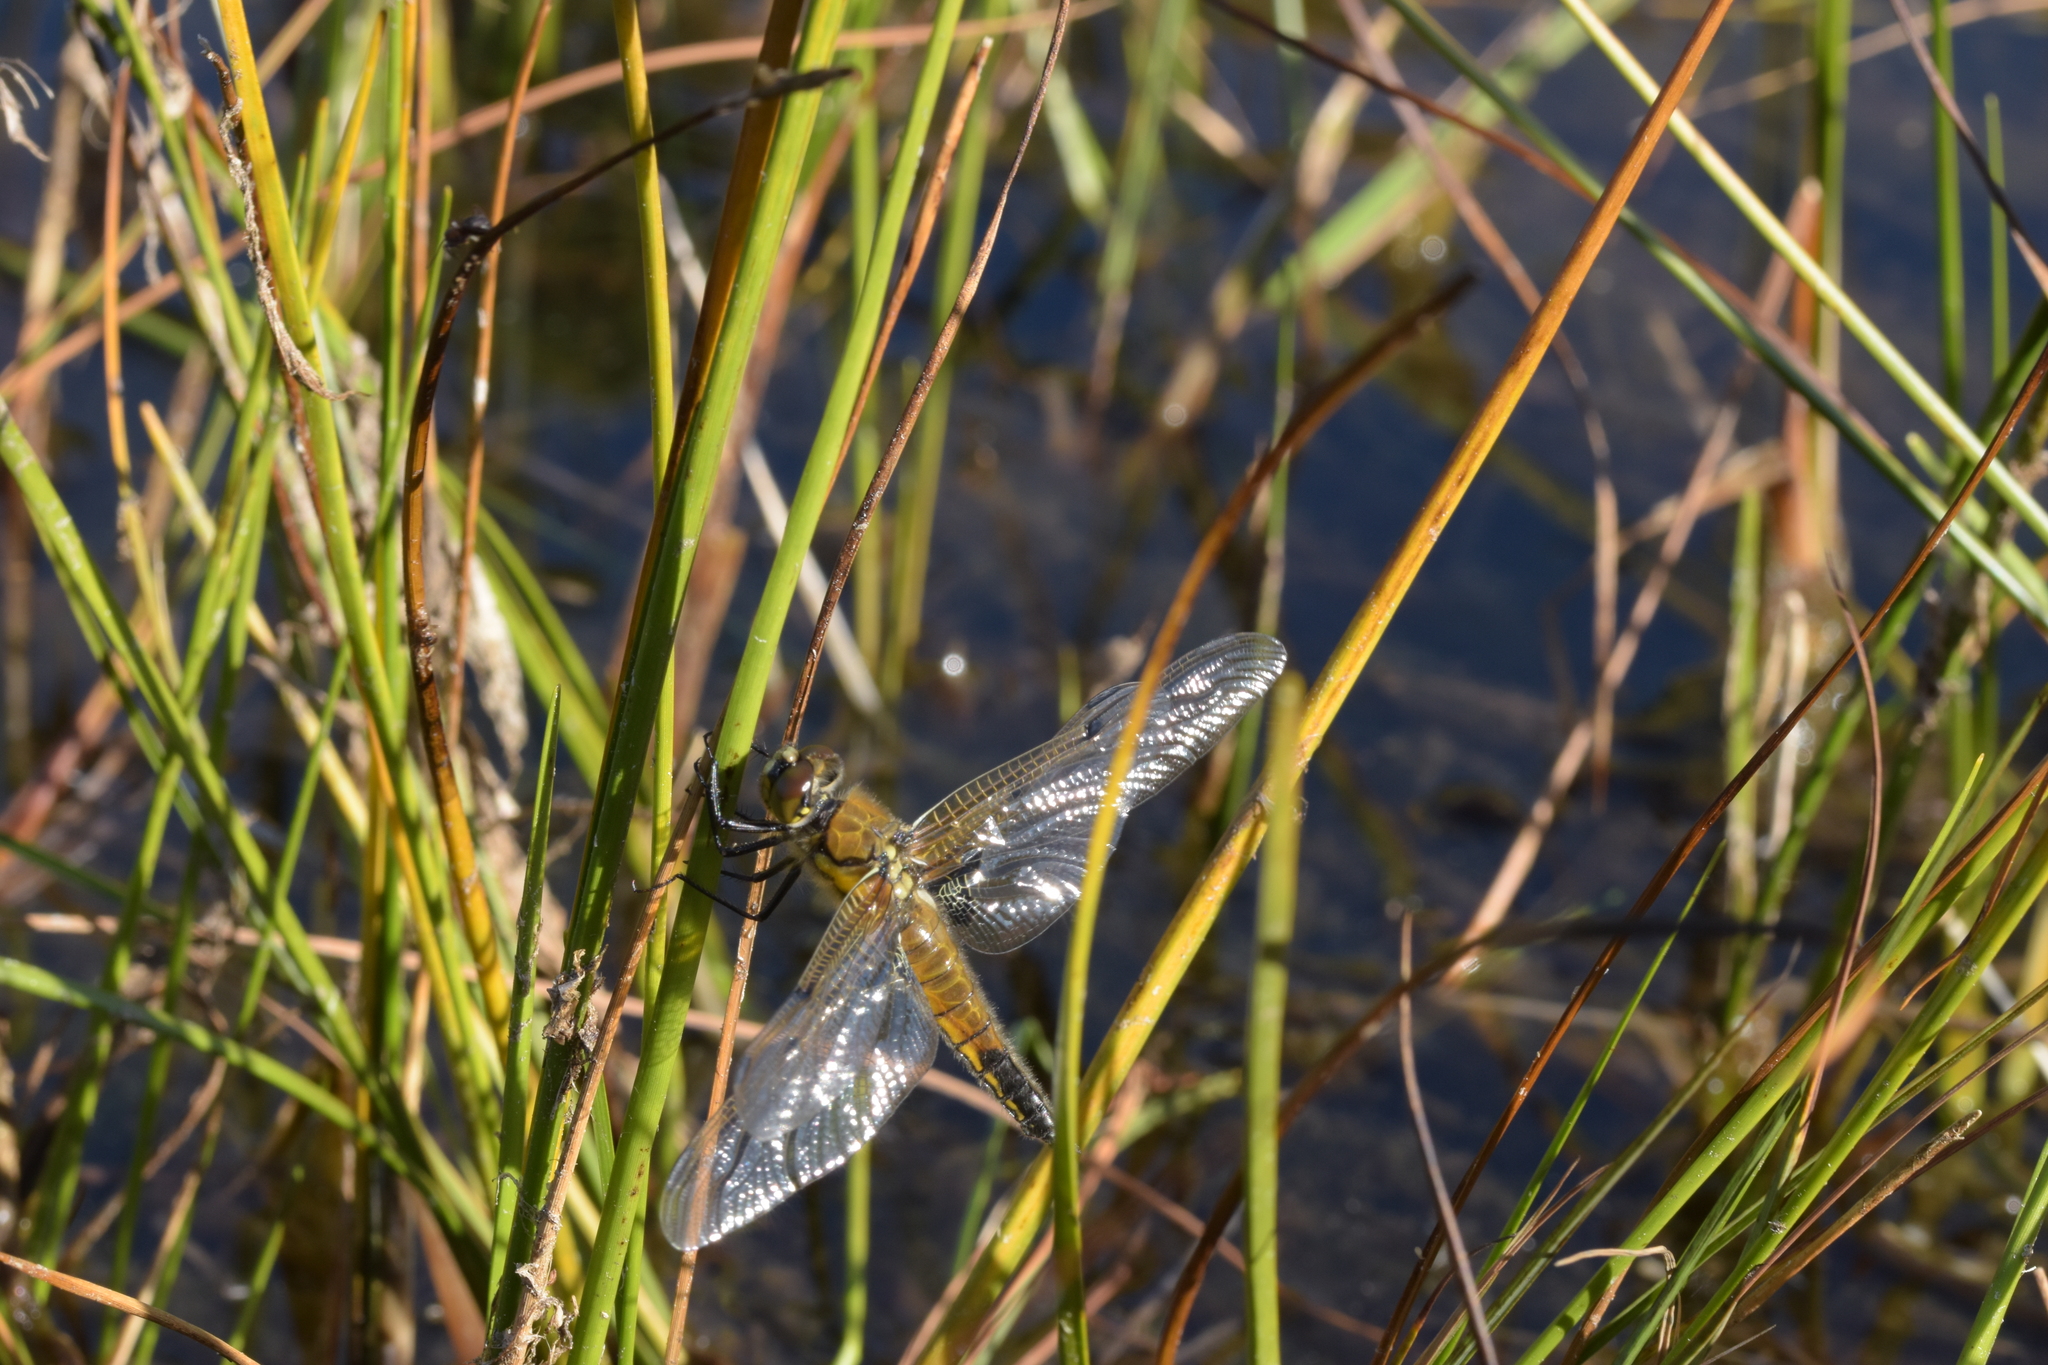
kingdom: Animalia
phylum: Arthropoda
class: Insecta
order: Odonata
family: Libellulidae
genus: Libellula
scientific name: Libellula quadrimaculata
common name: Four-spotted chaser
